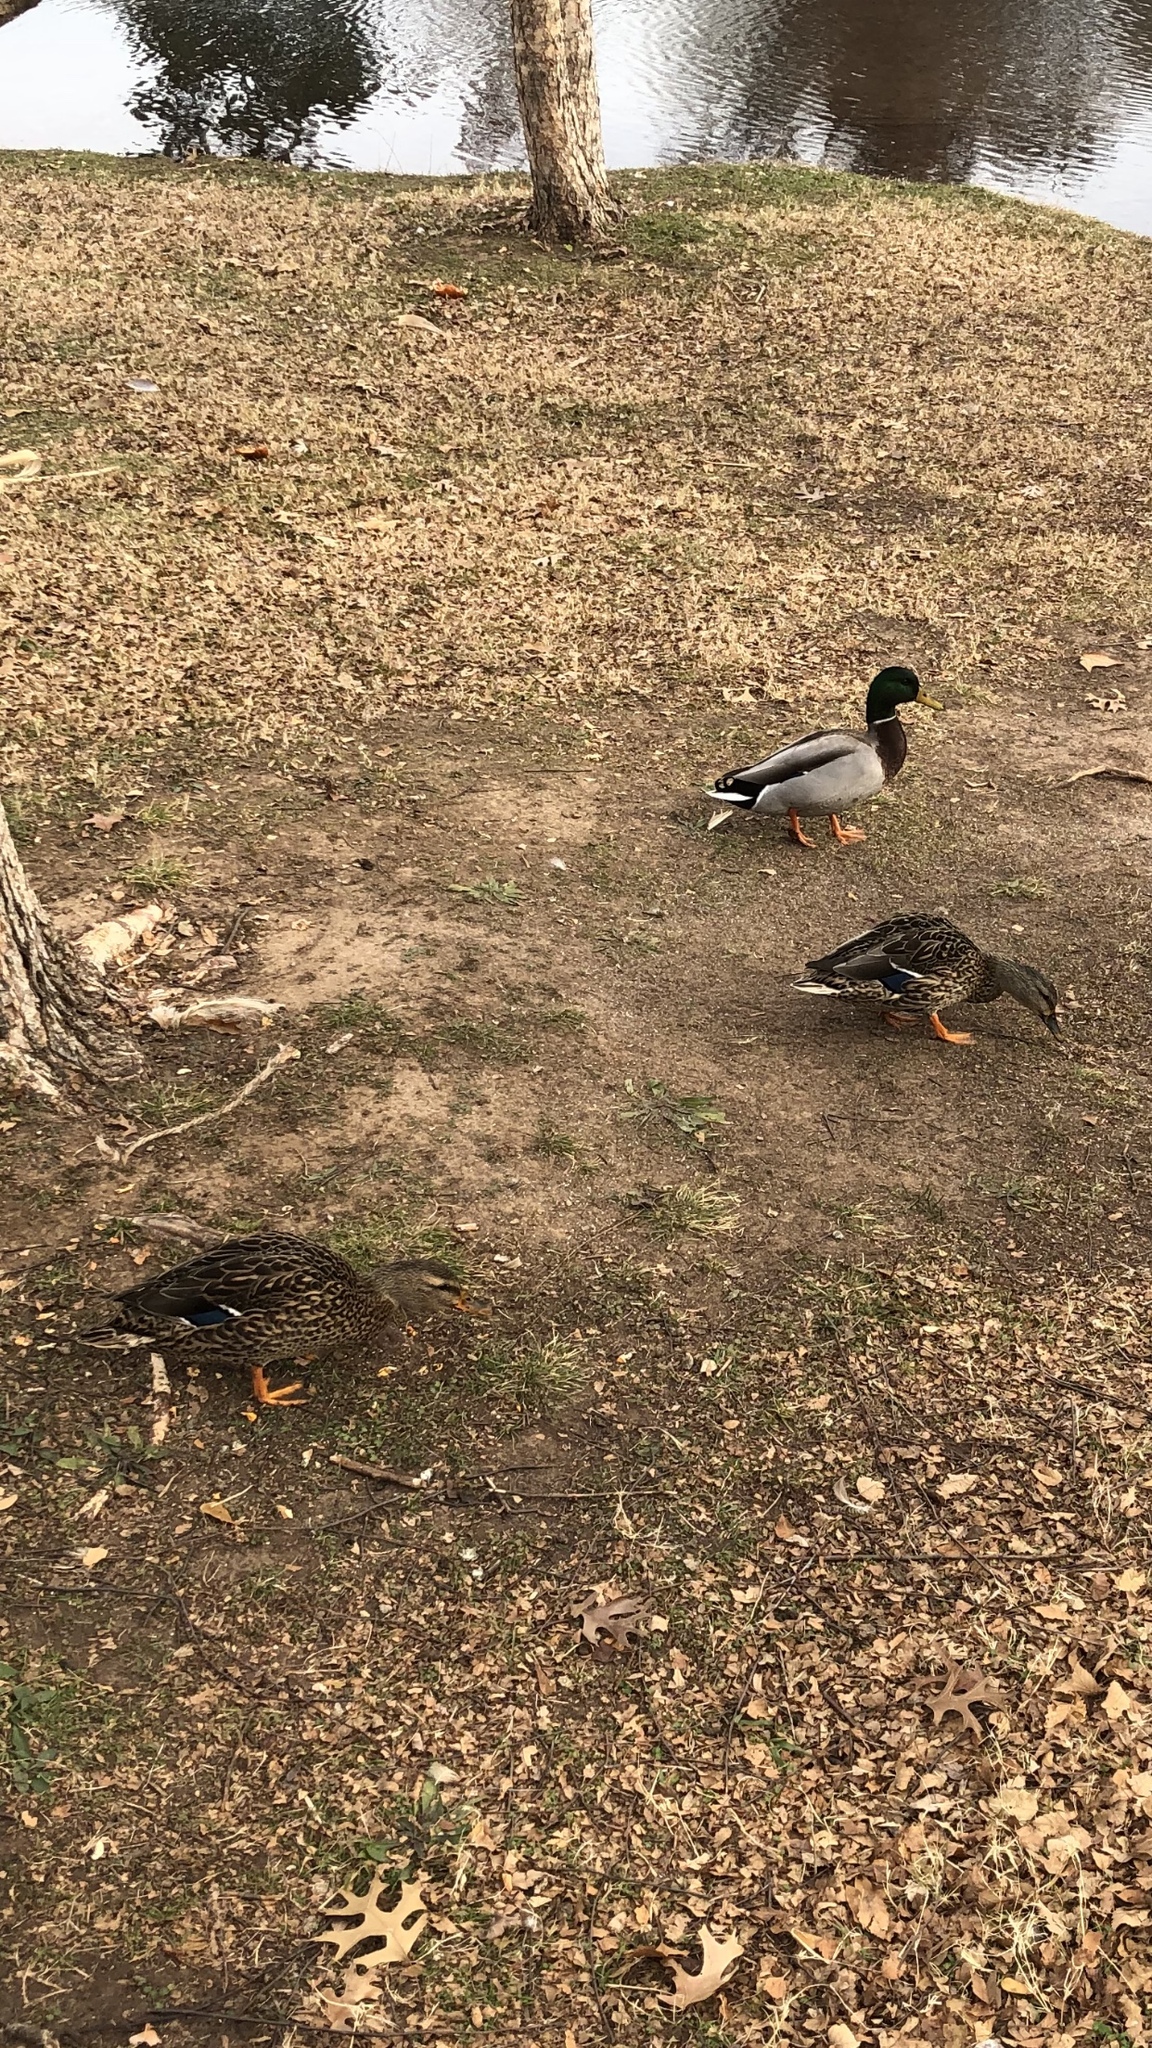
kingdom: Animalia
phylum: Chordata
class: Aves
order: Anseriformes
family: Anatidae
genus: Anas
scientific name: Anas platyrhynchos
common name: Mallard
